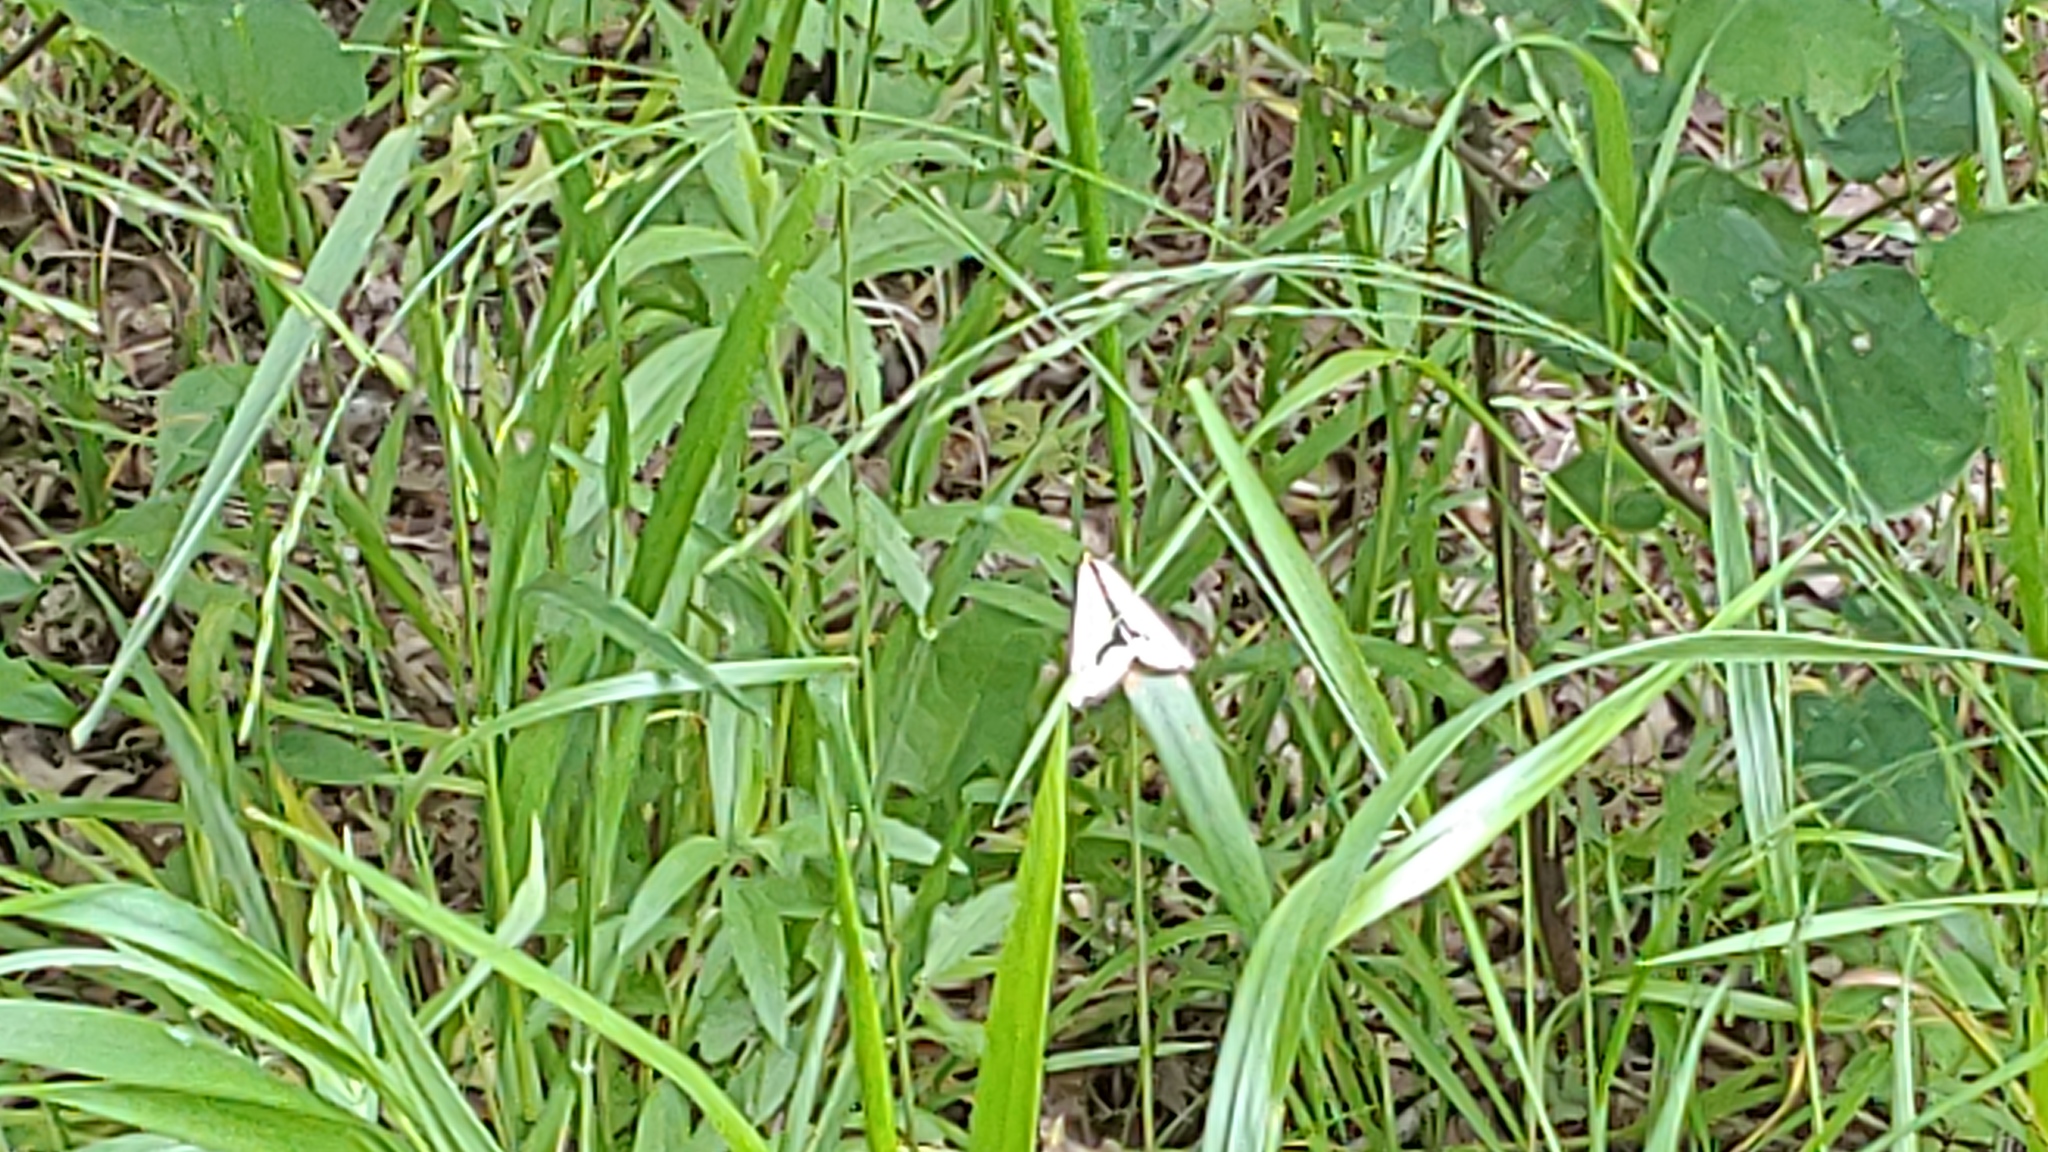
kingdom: Animalia
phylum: Arthropoda
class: Insecta
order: Lepidoptera
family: Erebidae
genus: Haploa
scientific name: Haploa lecontei
